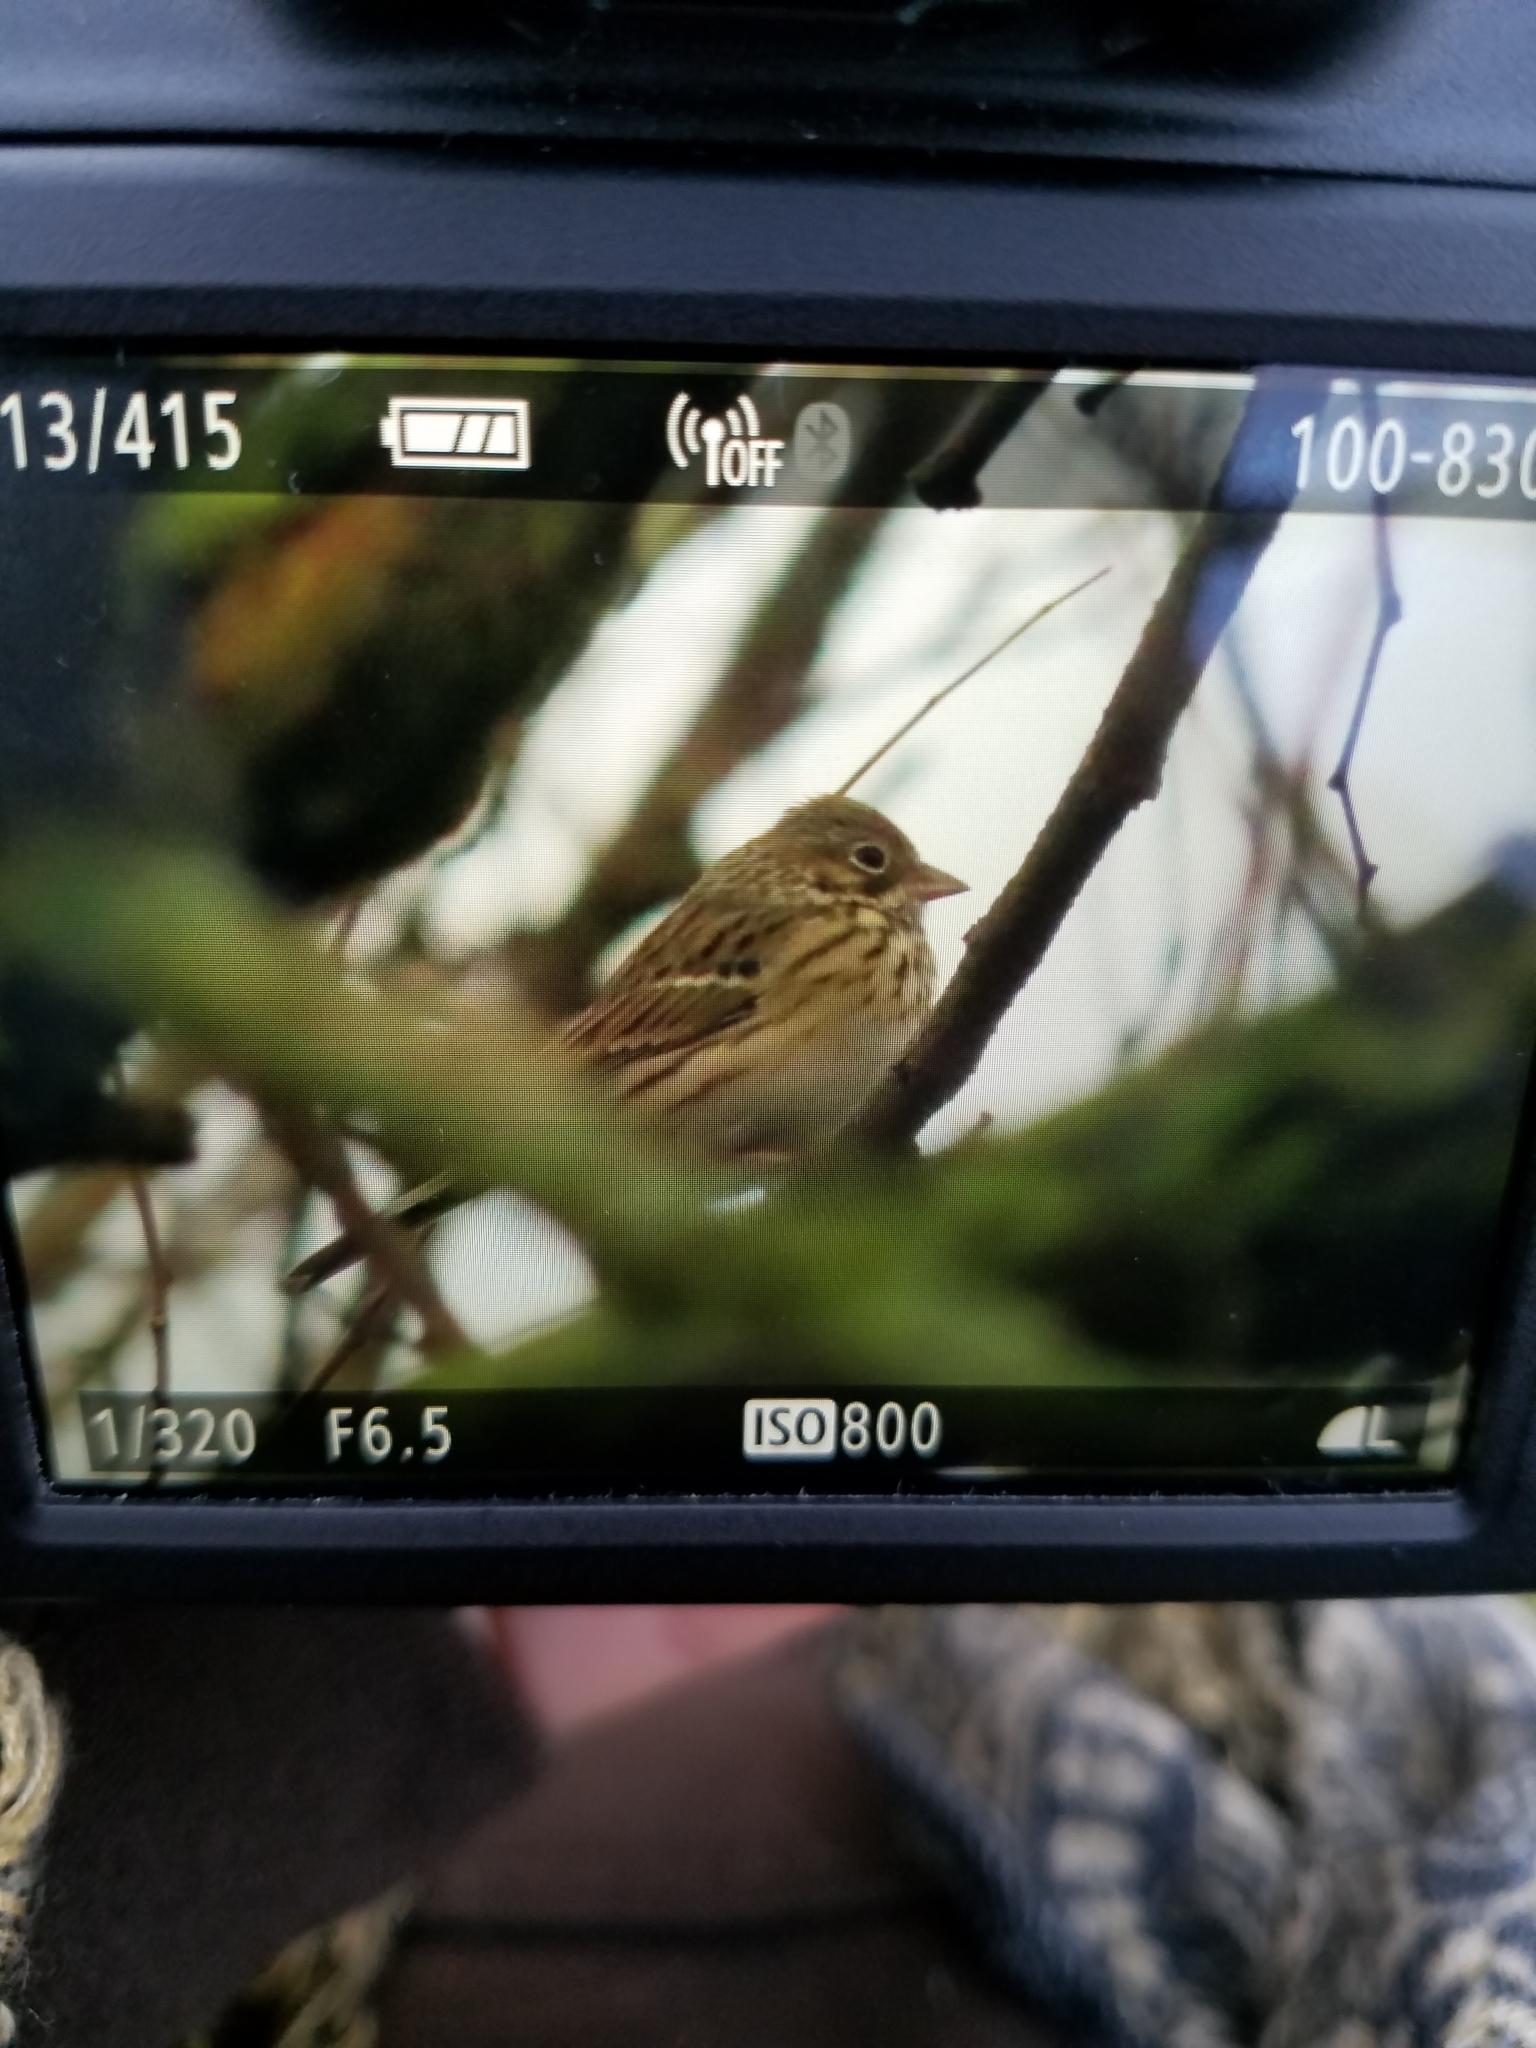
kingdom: Animalia
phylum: Chordata
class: Aves
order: Passeriformes
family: Passerellidae
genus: Pooecetes
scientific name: Pooecetes gramineus
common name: Vesper sparrow
